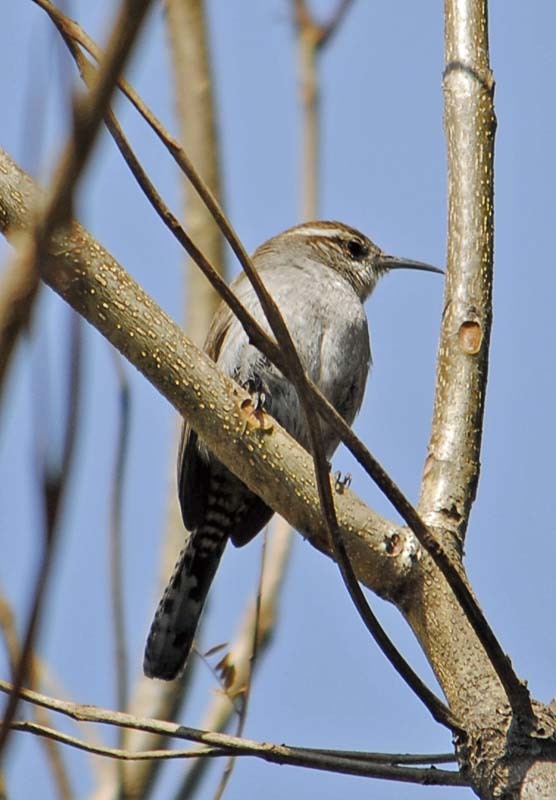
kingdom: Animalia
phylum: Chordata
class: Aves
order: Passeriformes
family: Troglodytidae
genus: Thryomanes
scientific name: Thryomanes bewickii
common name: Bewick's wren
